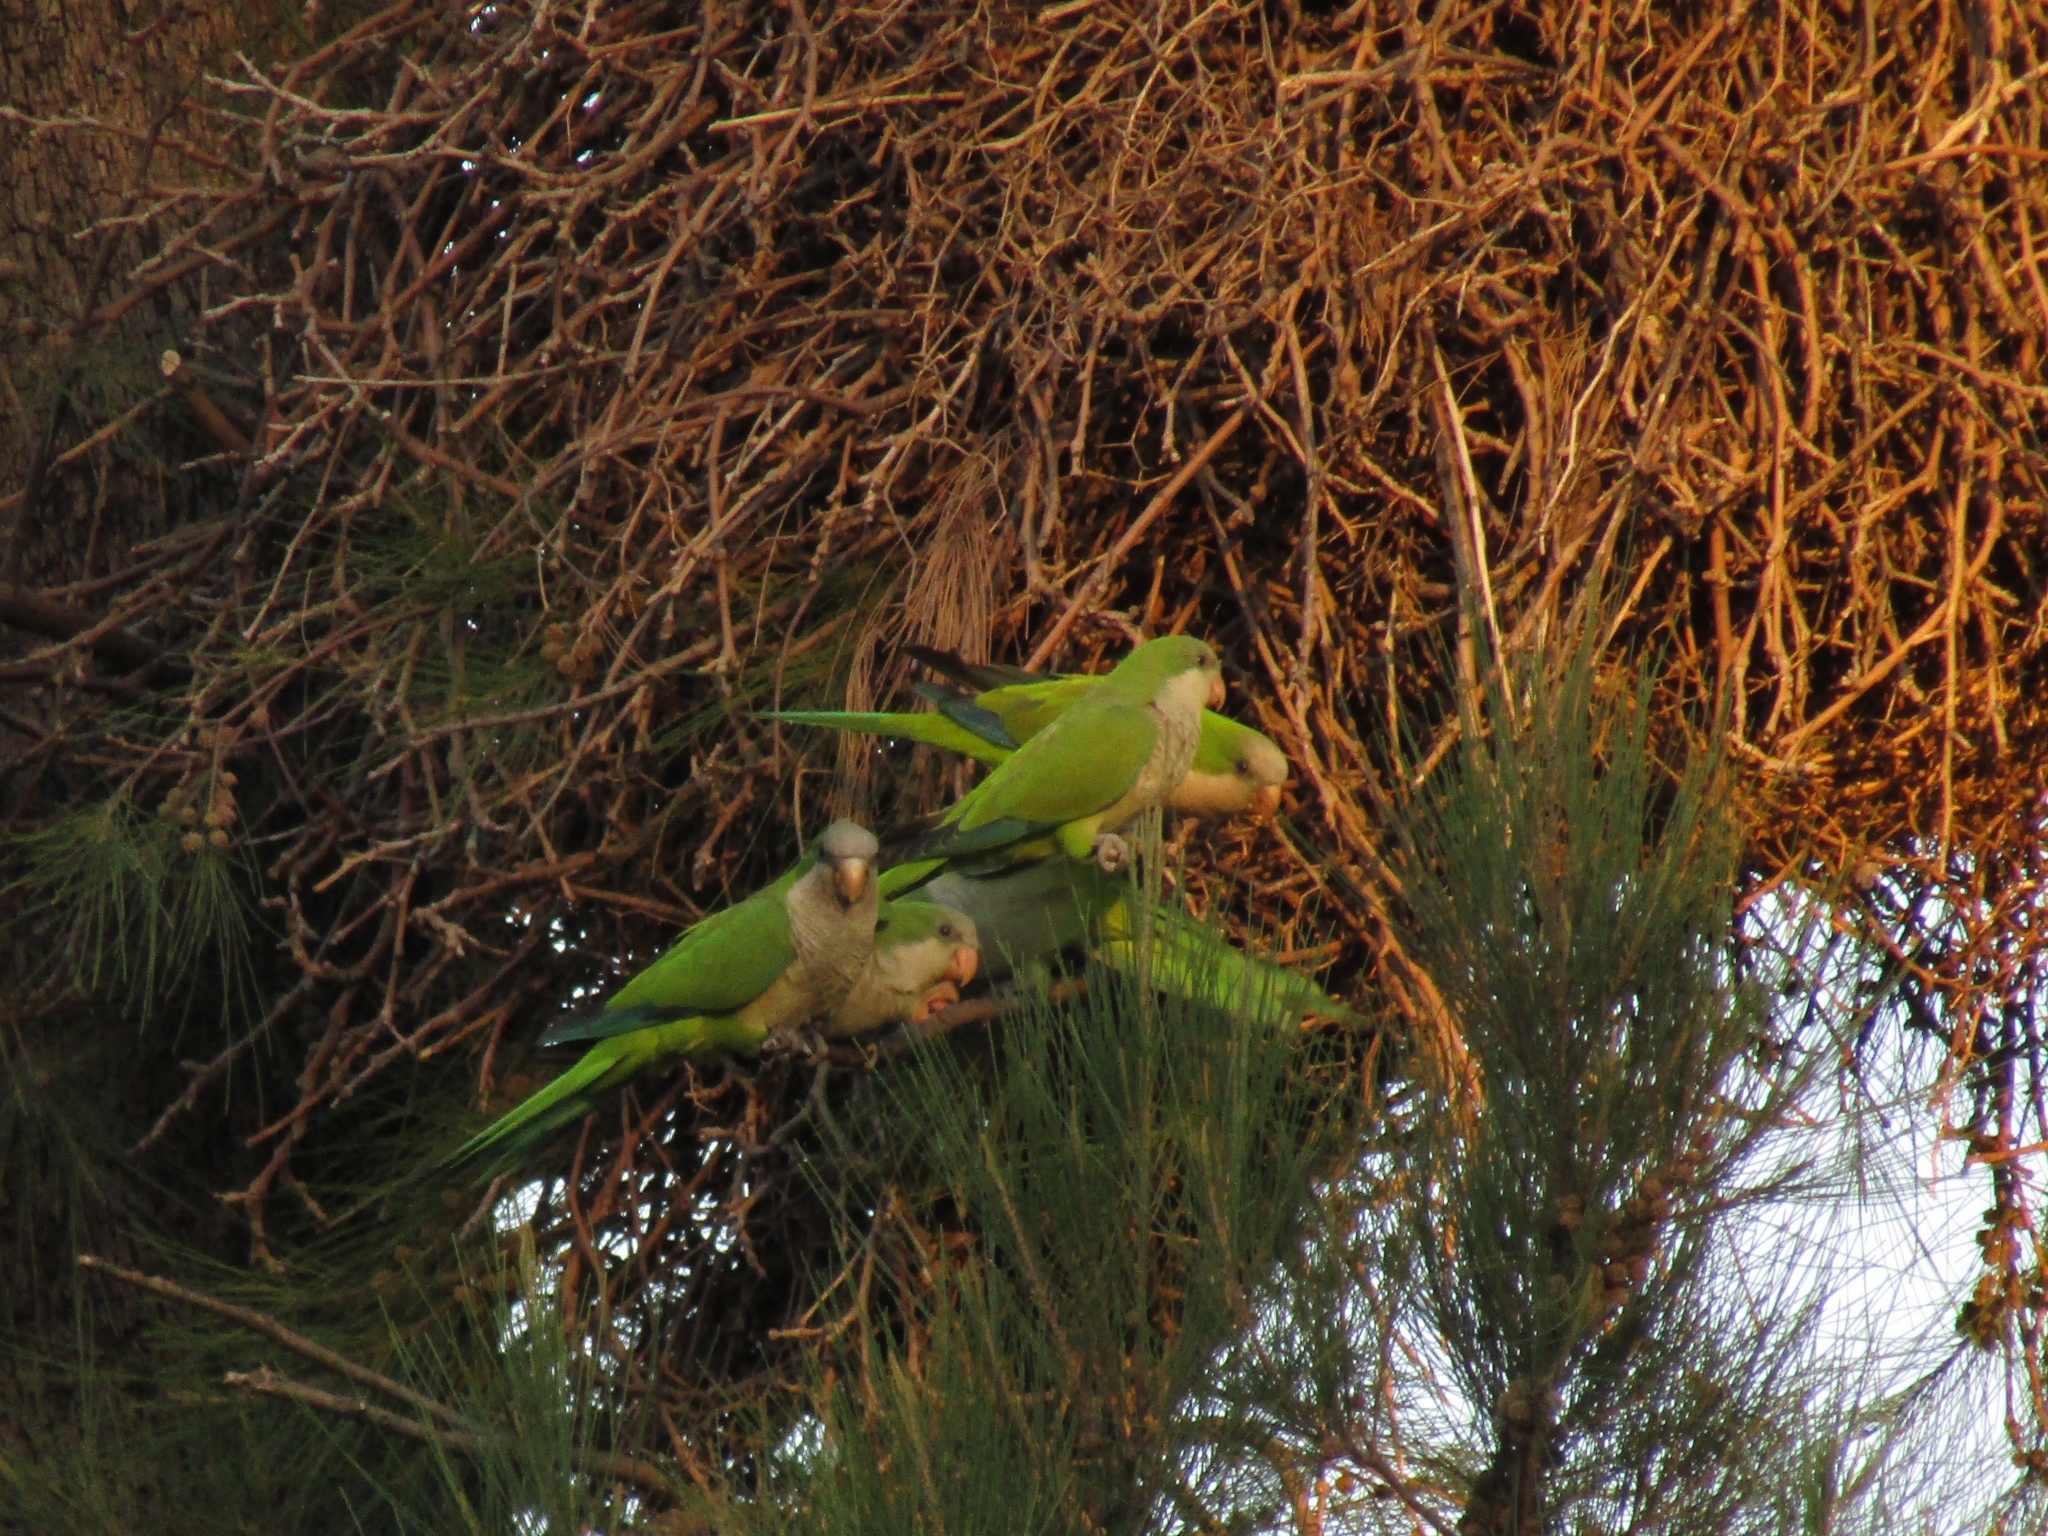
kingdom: Animalia
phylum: Chordata
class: Aves
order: Psittaciformes
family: Psittacidae
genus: Myiopsitta
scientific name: Myiopsitta monachus
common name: Monk parakeet
